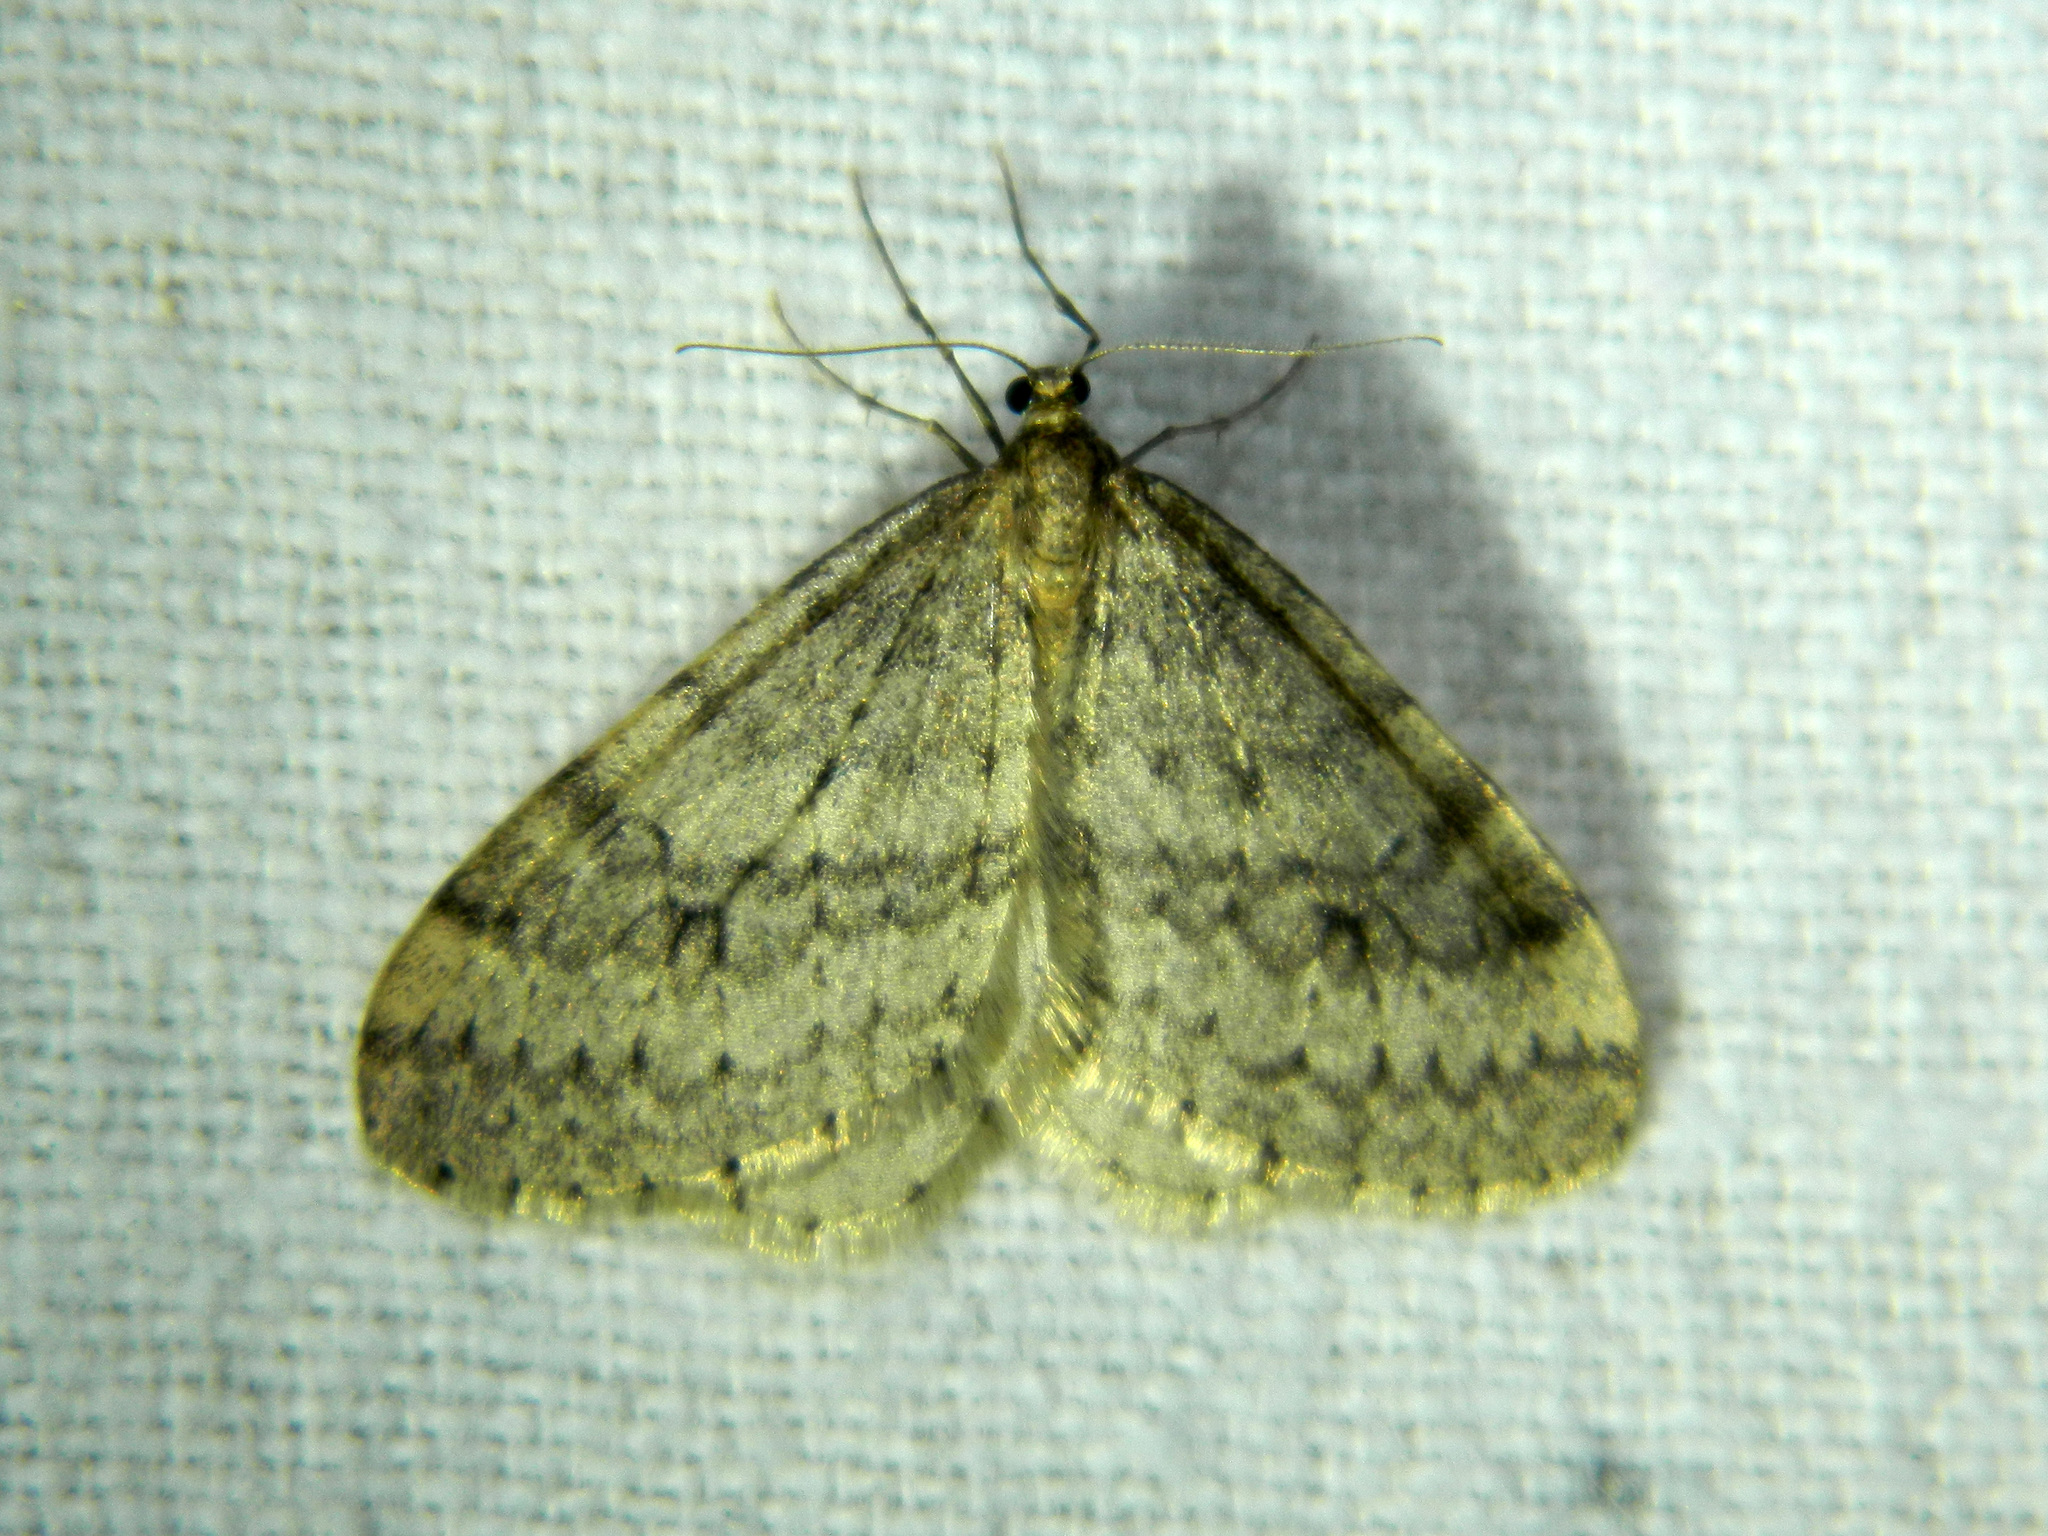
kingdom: Animalia
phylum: Arthropoda
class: Insecta
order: Lepidoptera
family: Geometridae
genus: Operophtera
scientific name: Operophtera bruceata
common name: Bruce spanworm
